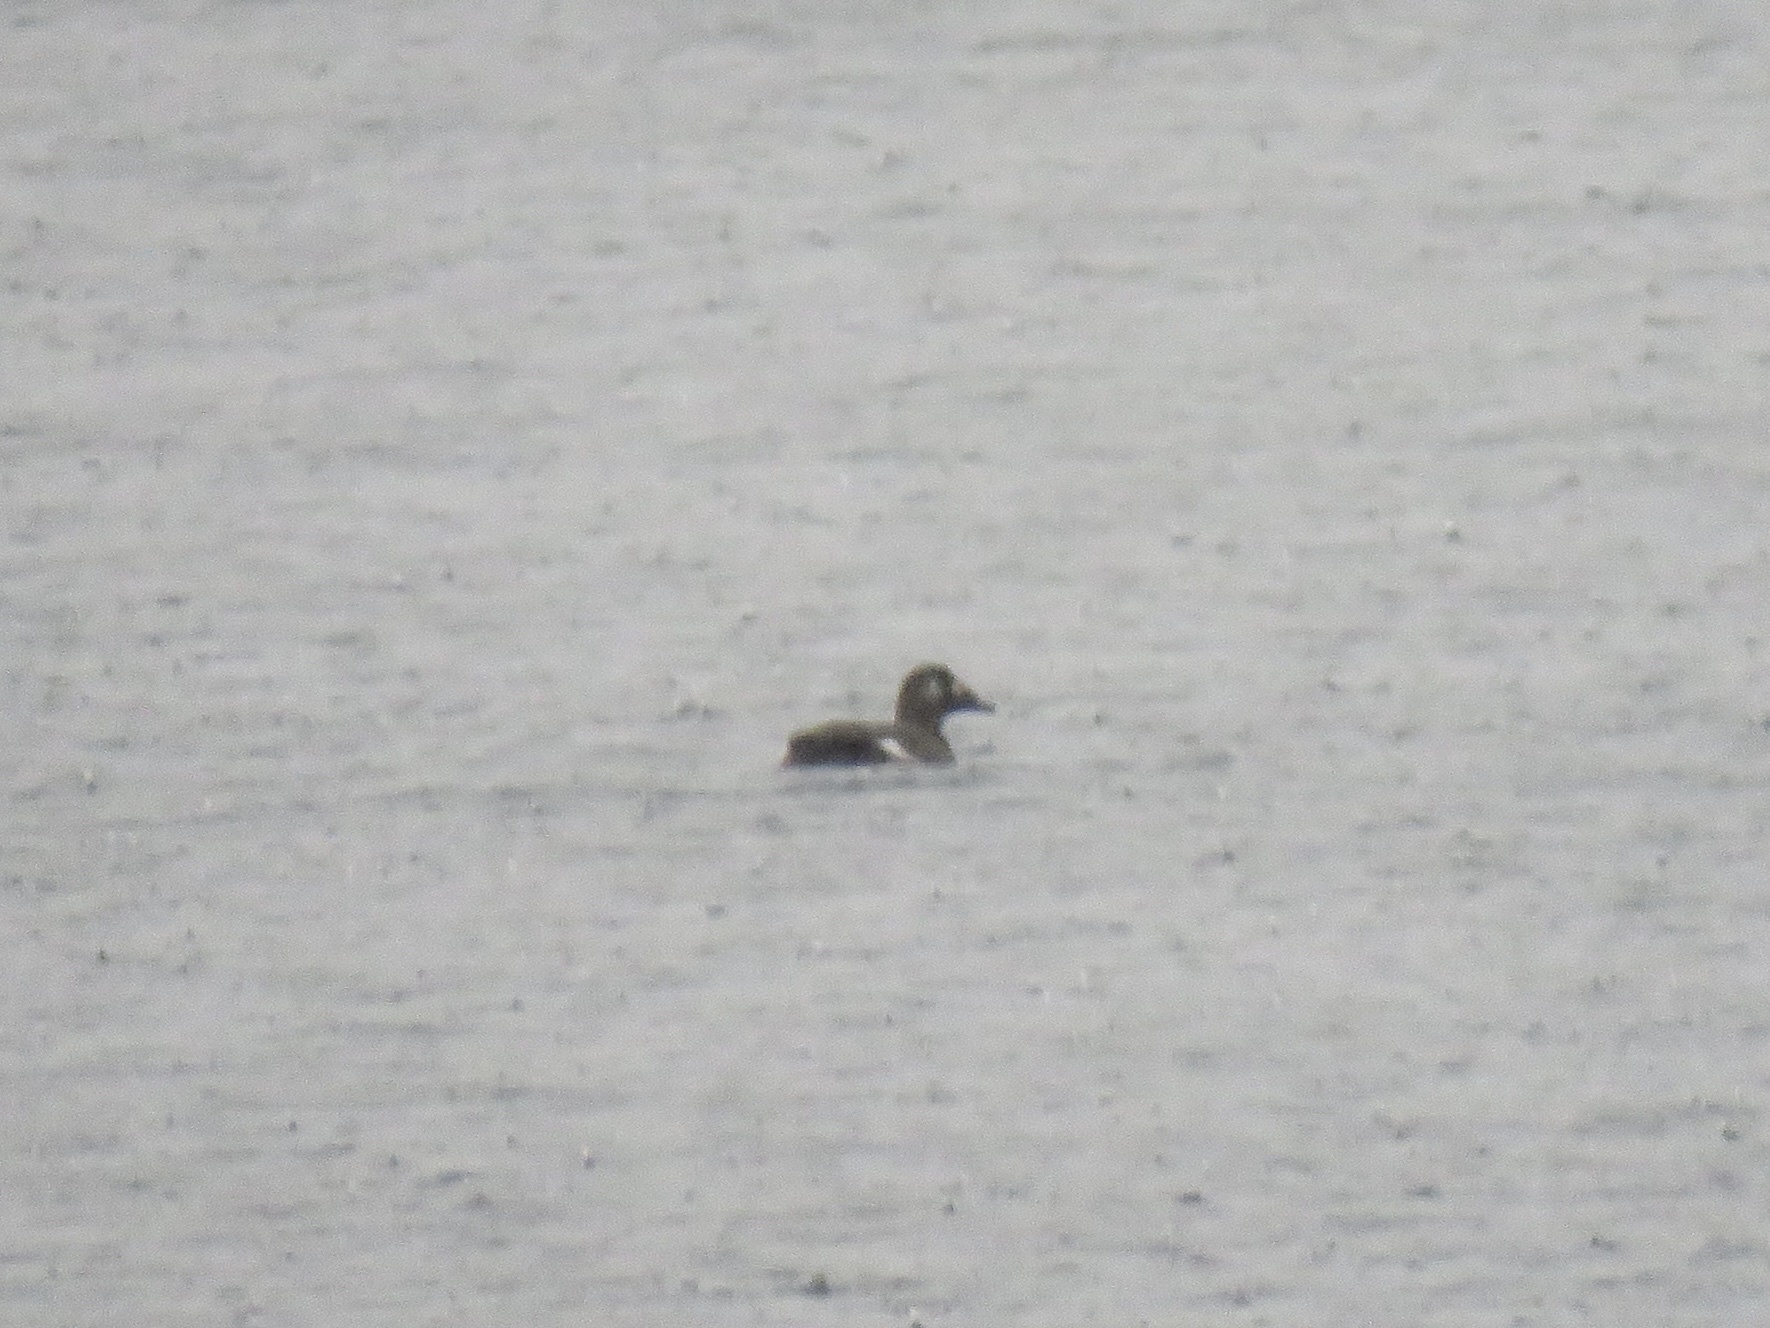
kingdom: Animalia
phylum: Chordata
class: Aves
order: Anseriformes
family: Anatidae
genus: Melanitta
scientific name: Melanitta deglandi
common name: White-winged scoter
